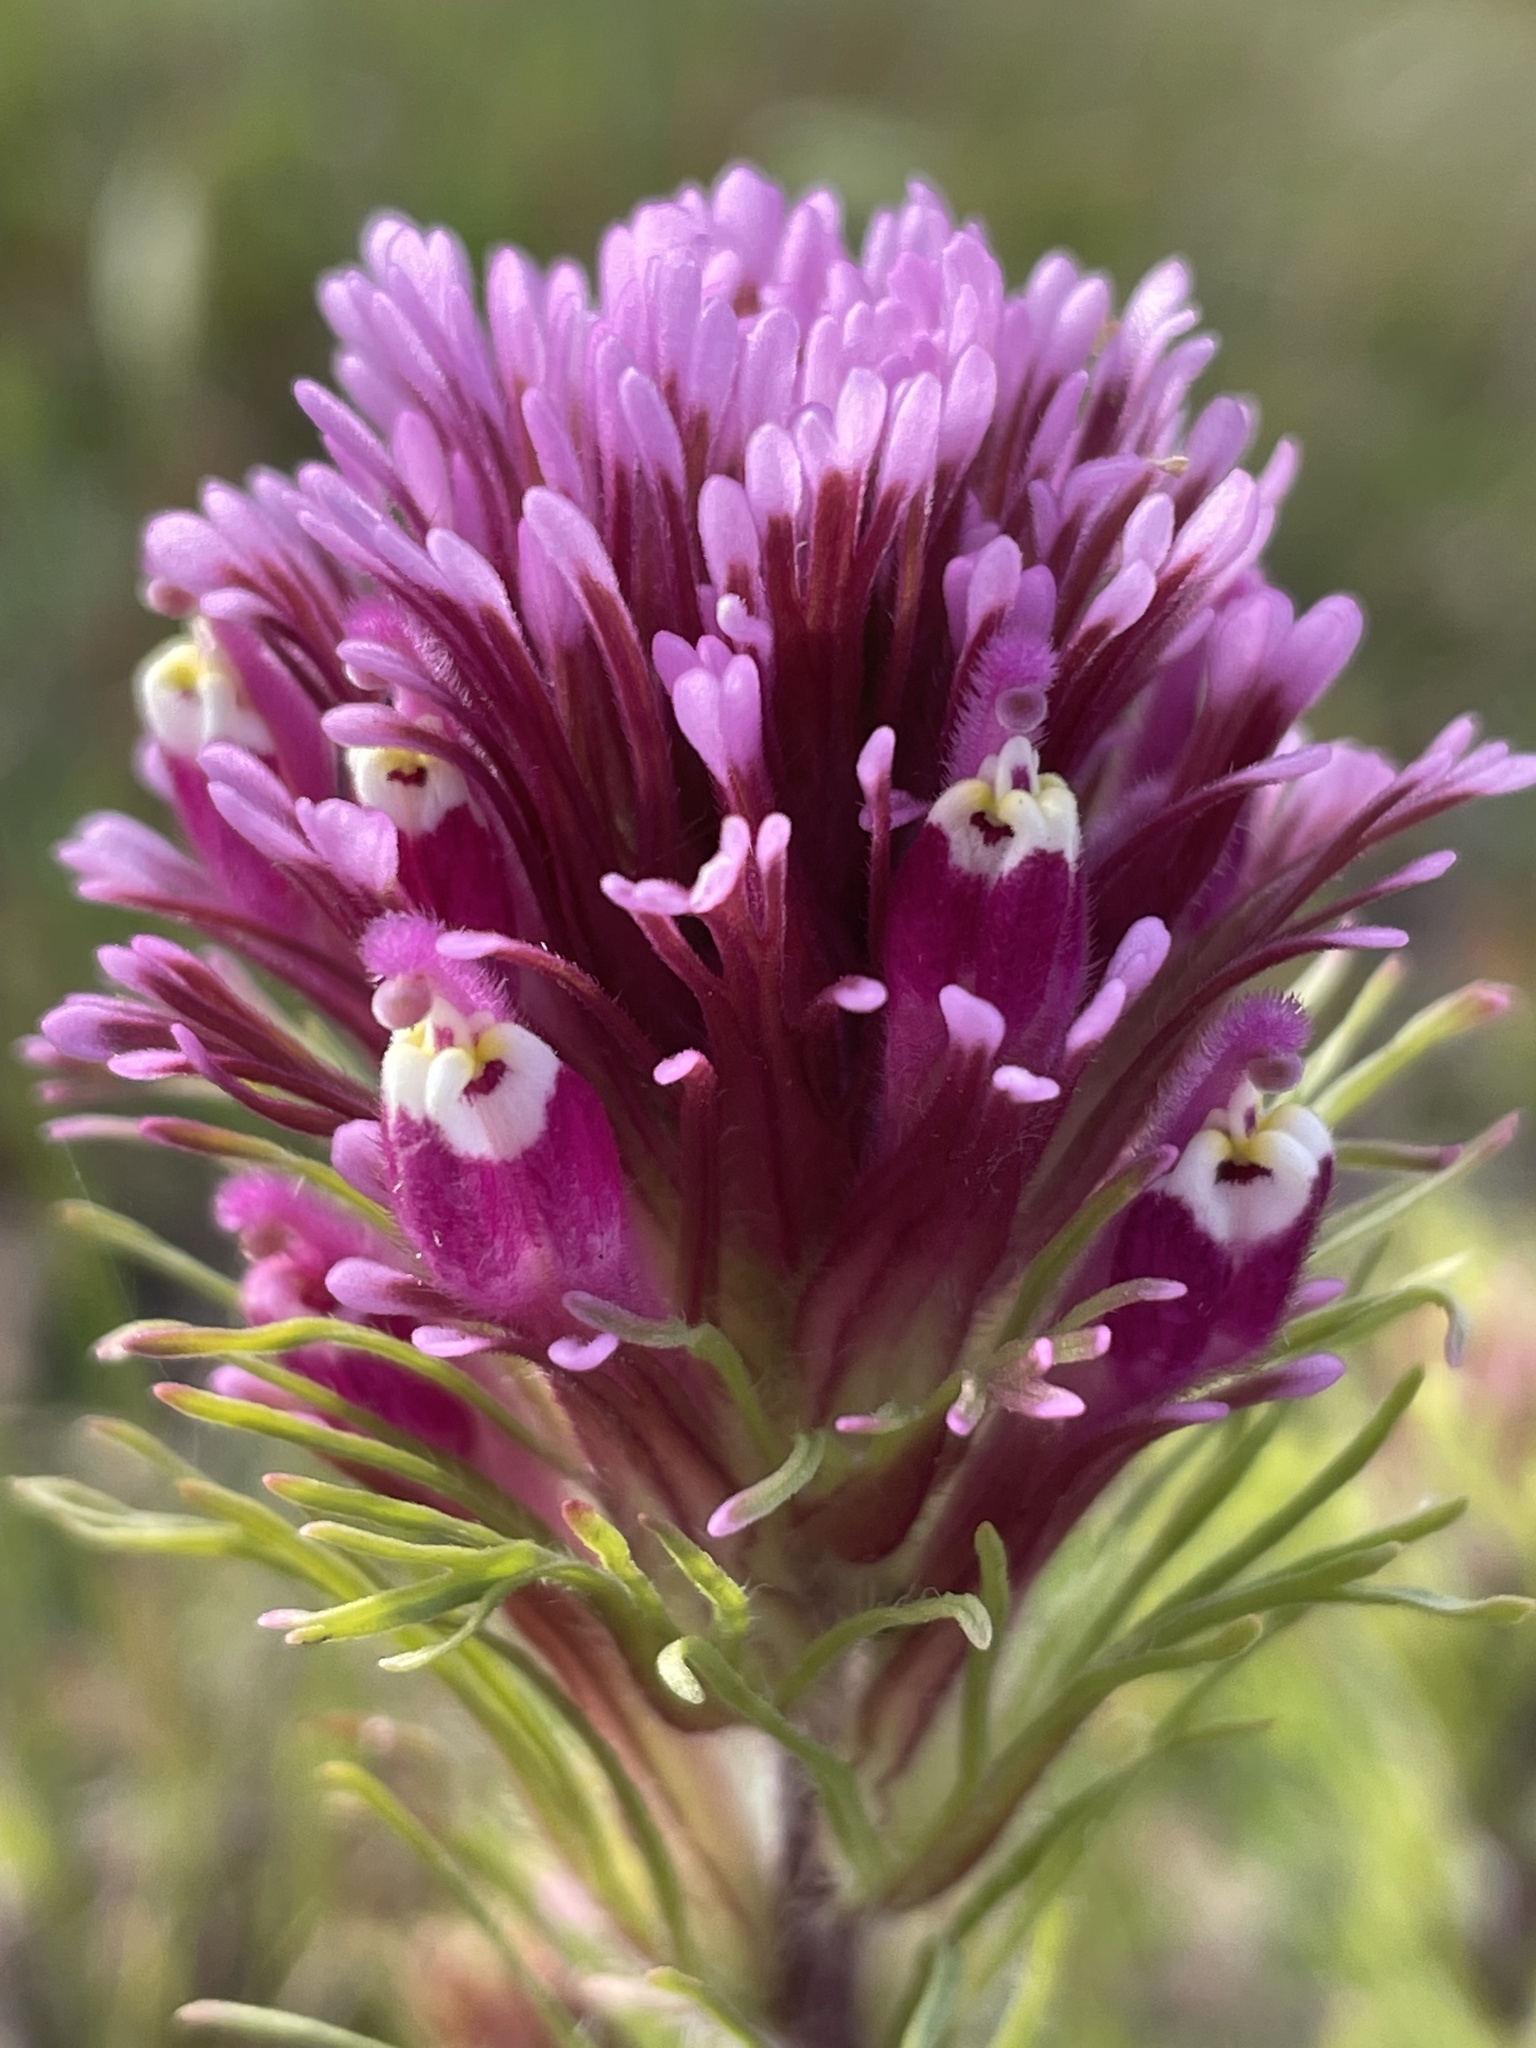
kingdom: Plantae
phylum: Tracheophyta
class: Magnoliopsida
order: Lamiales
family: Orobanchaceae
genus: Castilleja
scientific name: Castilleja exserta
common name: Purple owl-clover
